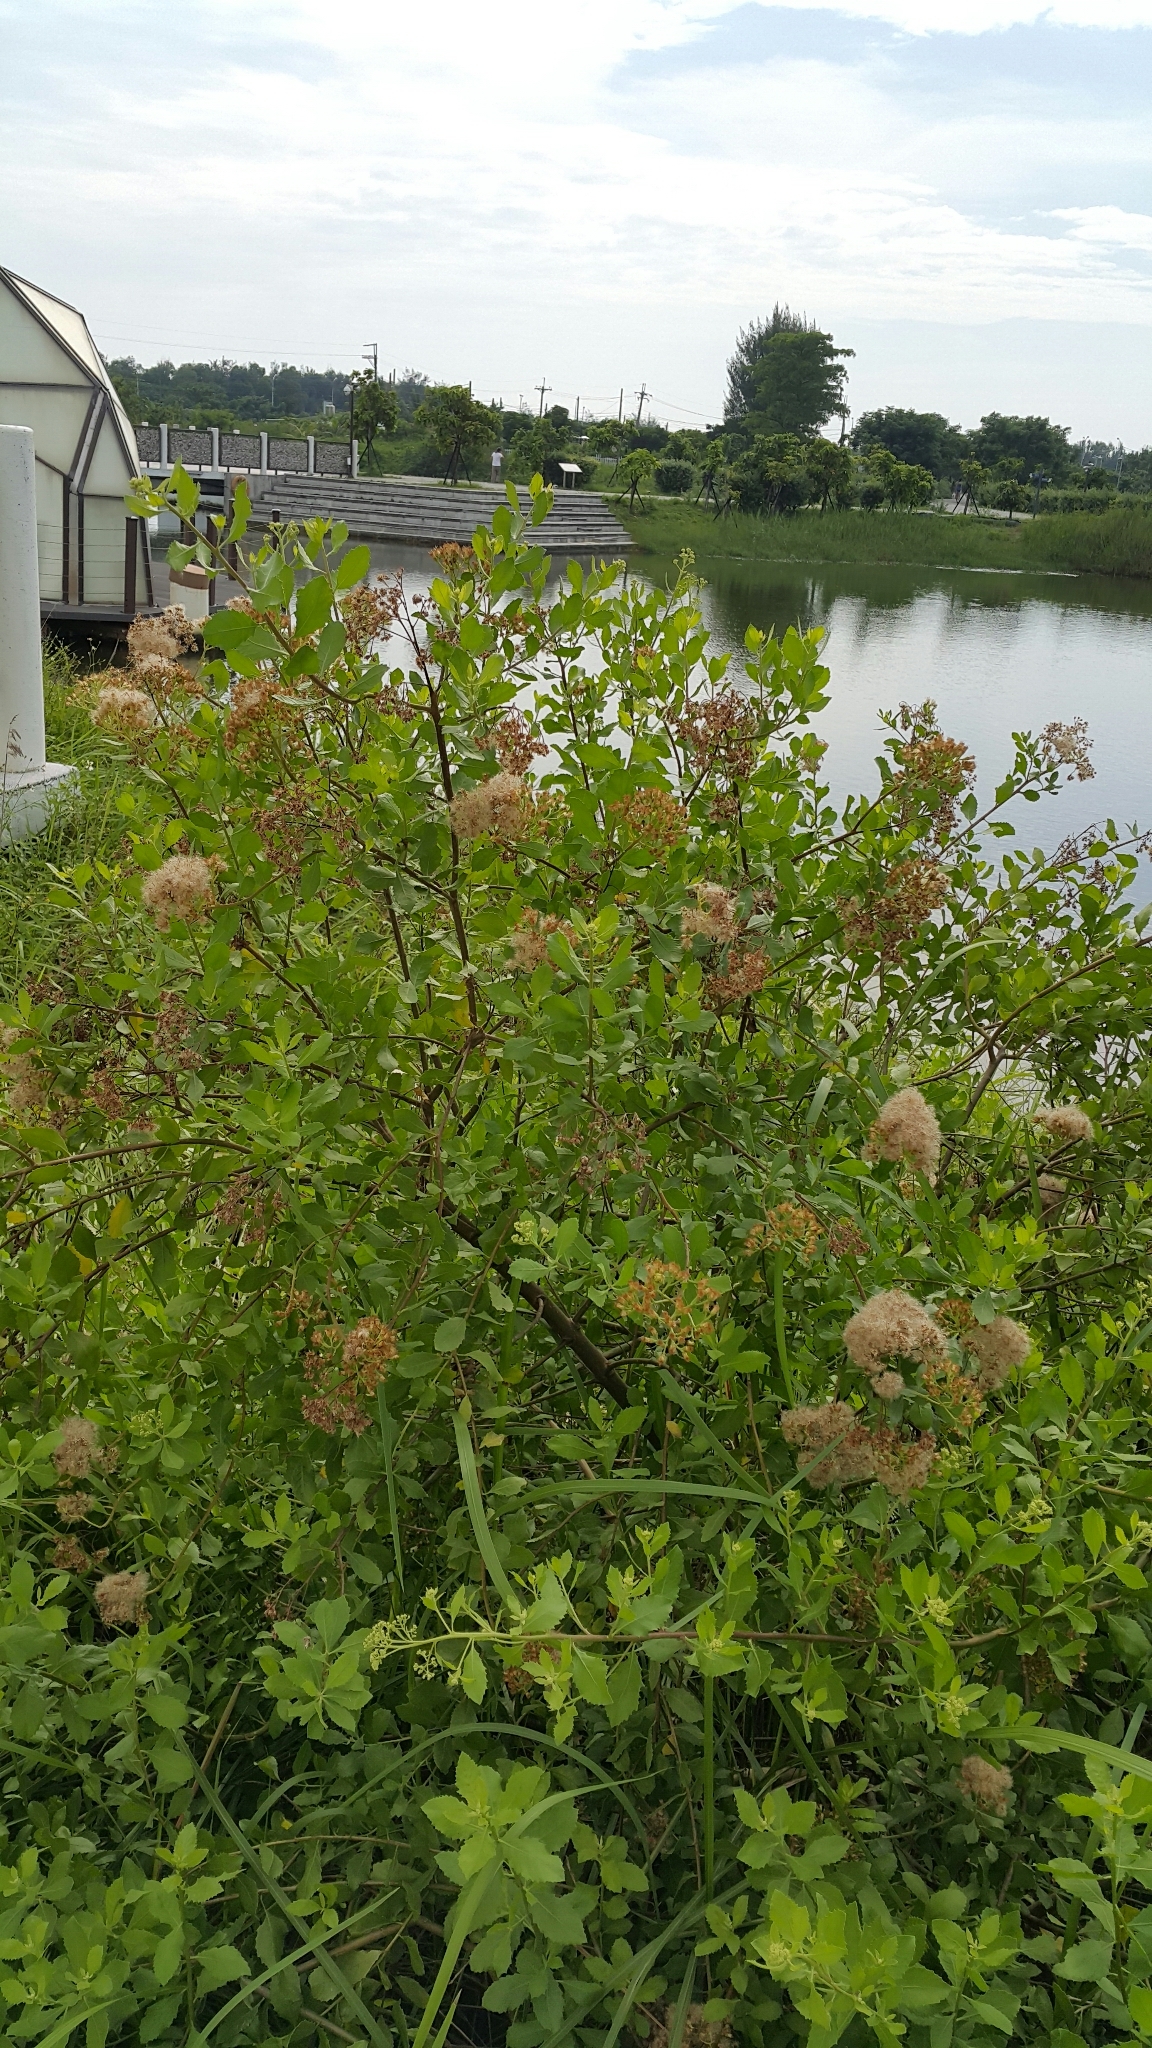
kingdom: Plantae
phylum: Tracheophyta
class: Magnoliopsida
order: Asterales
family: Asteraceae
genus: Pluchea
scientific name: Pluchea indica
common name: Indian fleabane
